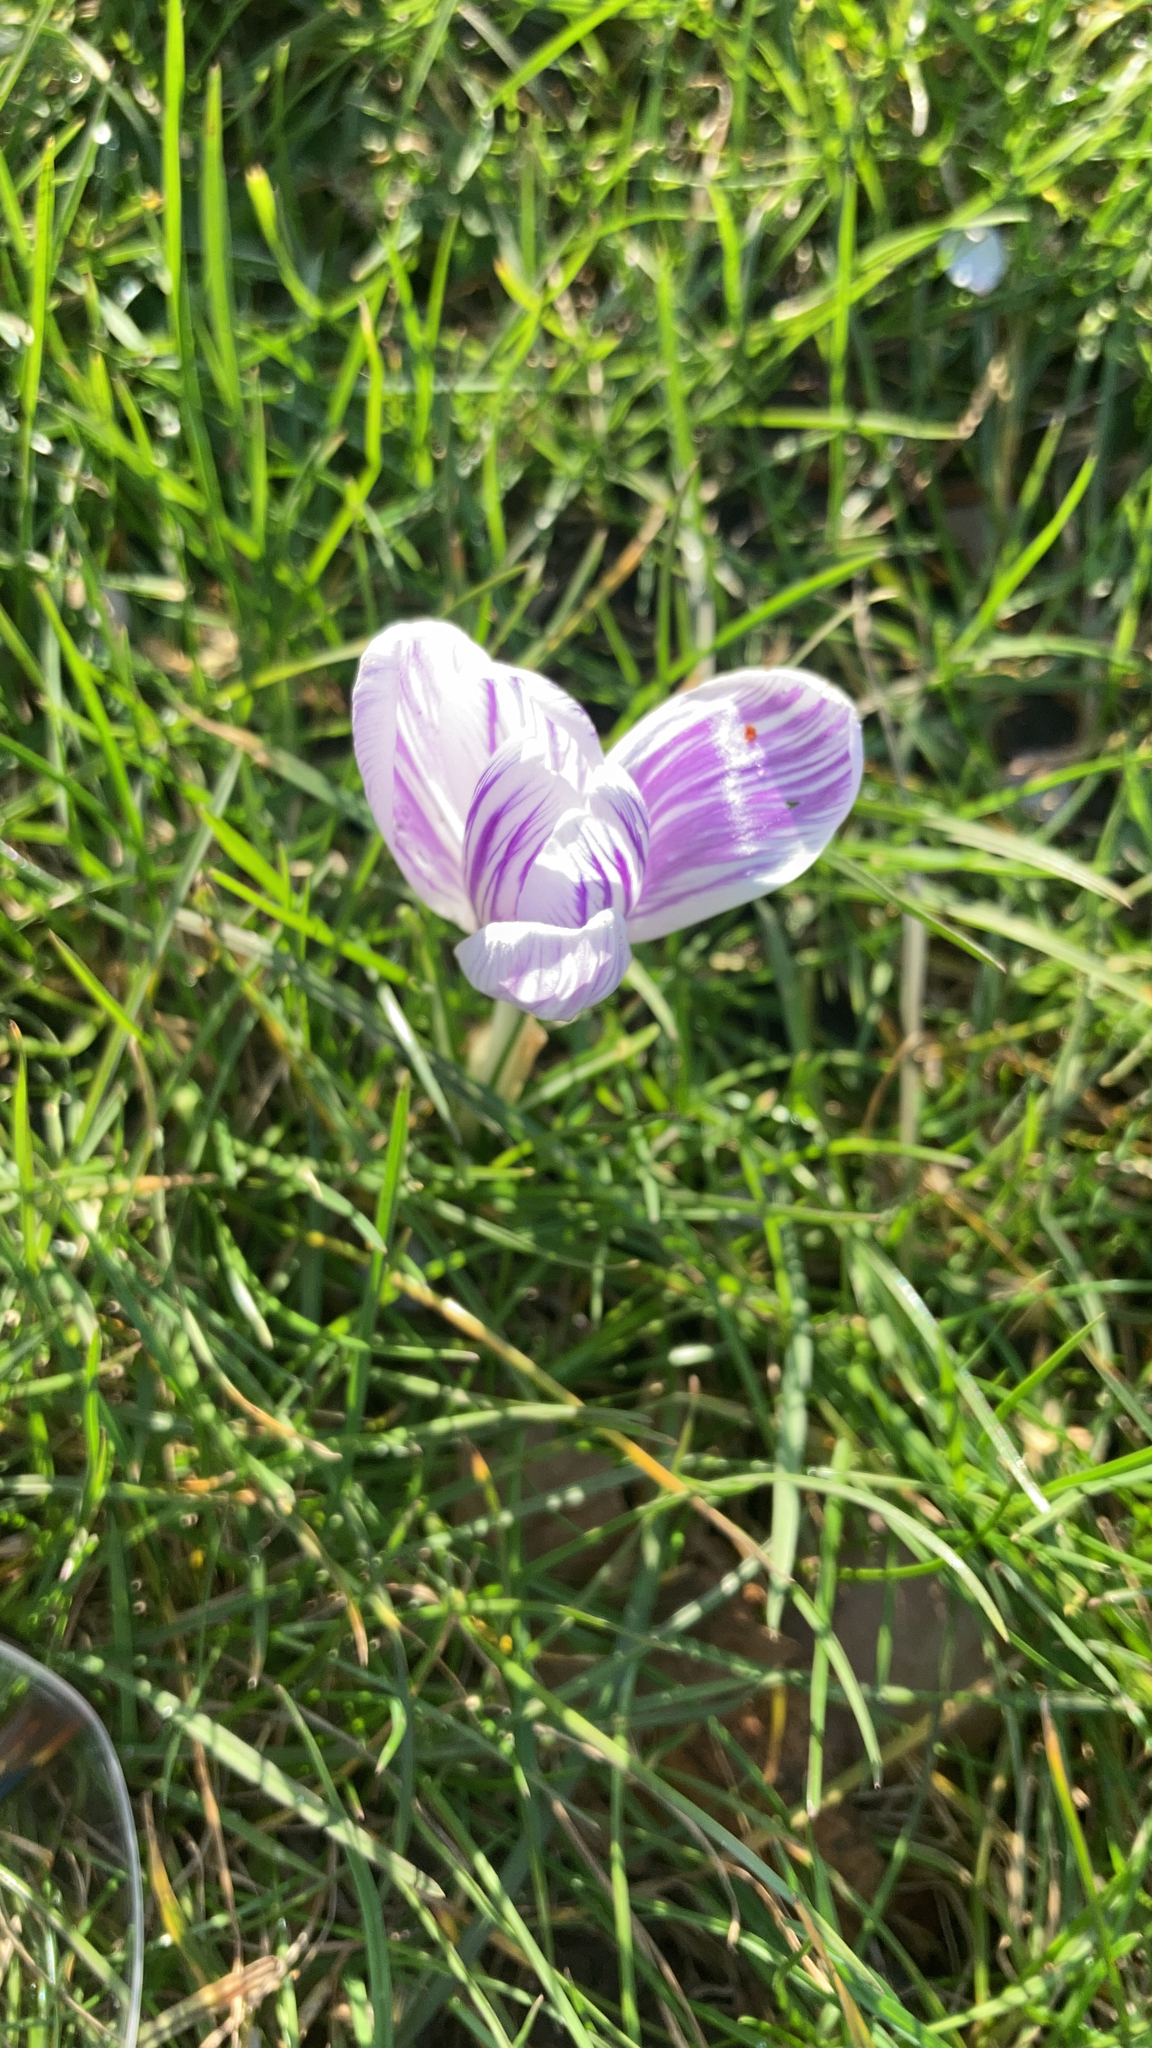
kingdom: Plantae
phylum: Tracheophyta
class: Liliopsida
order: Asparagales
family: Iridaceae
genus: Crocus
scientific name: Crocus
